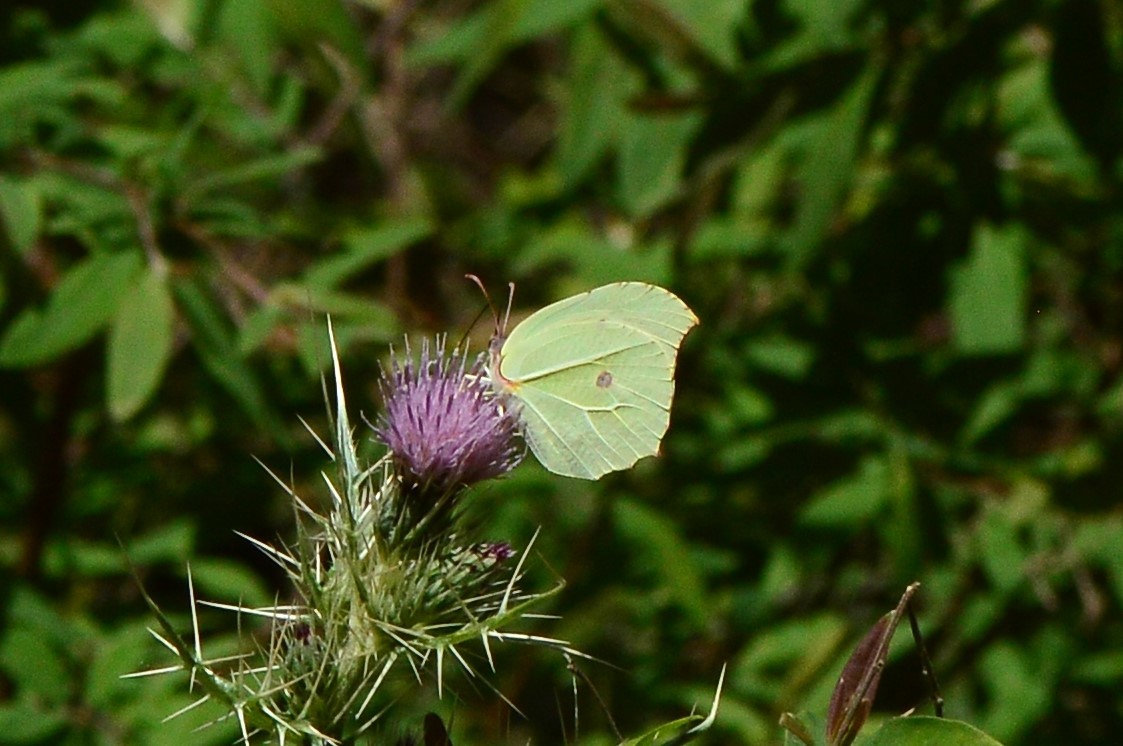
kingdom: Animalia
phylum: Arthropoda
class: Insecta
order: Lepidoptera
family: Pieridae
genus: Gonepteryx
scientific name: Gonepteryx
